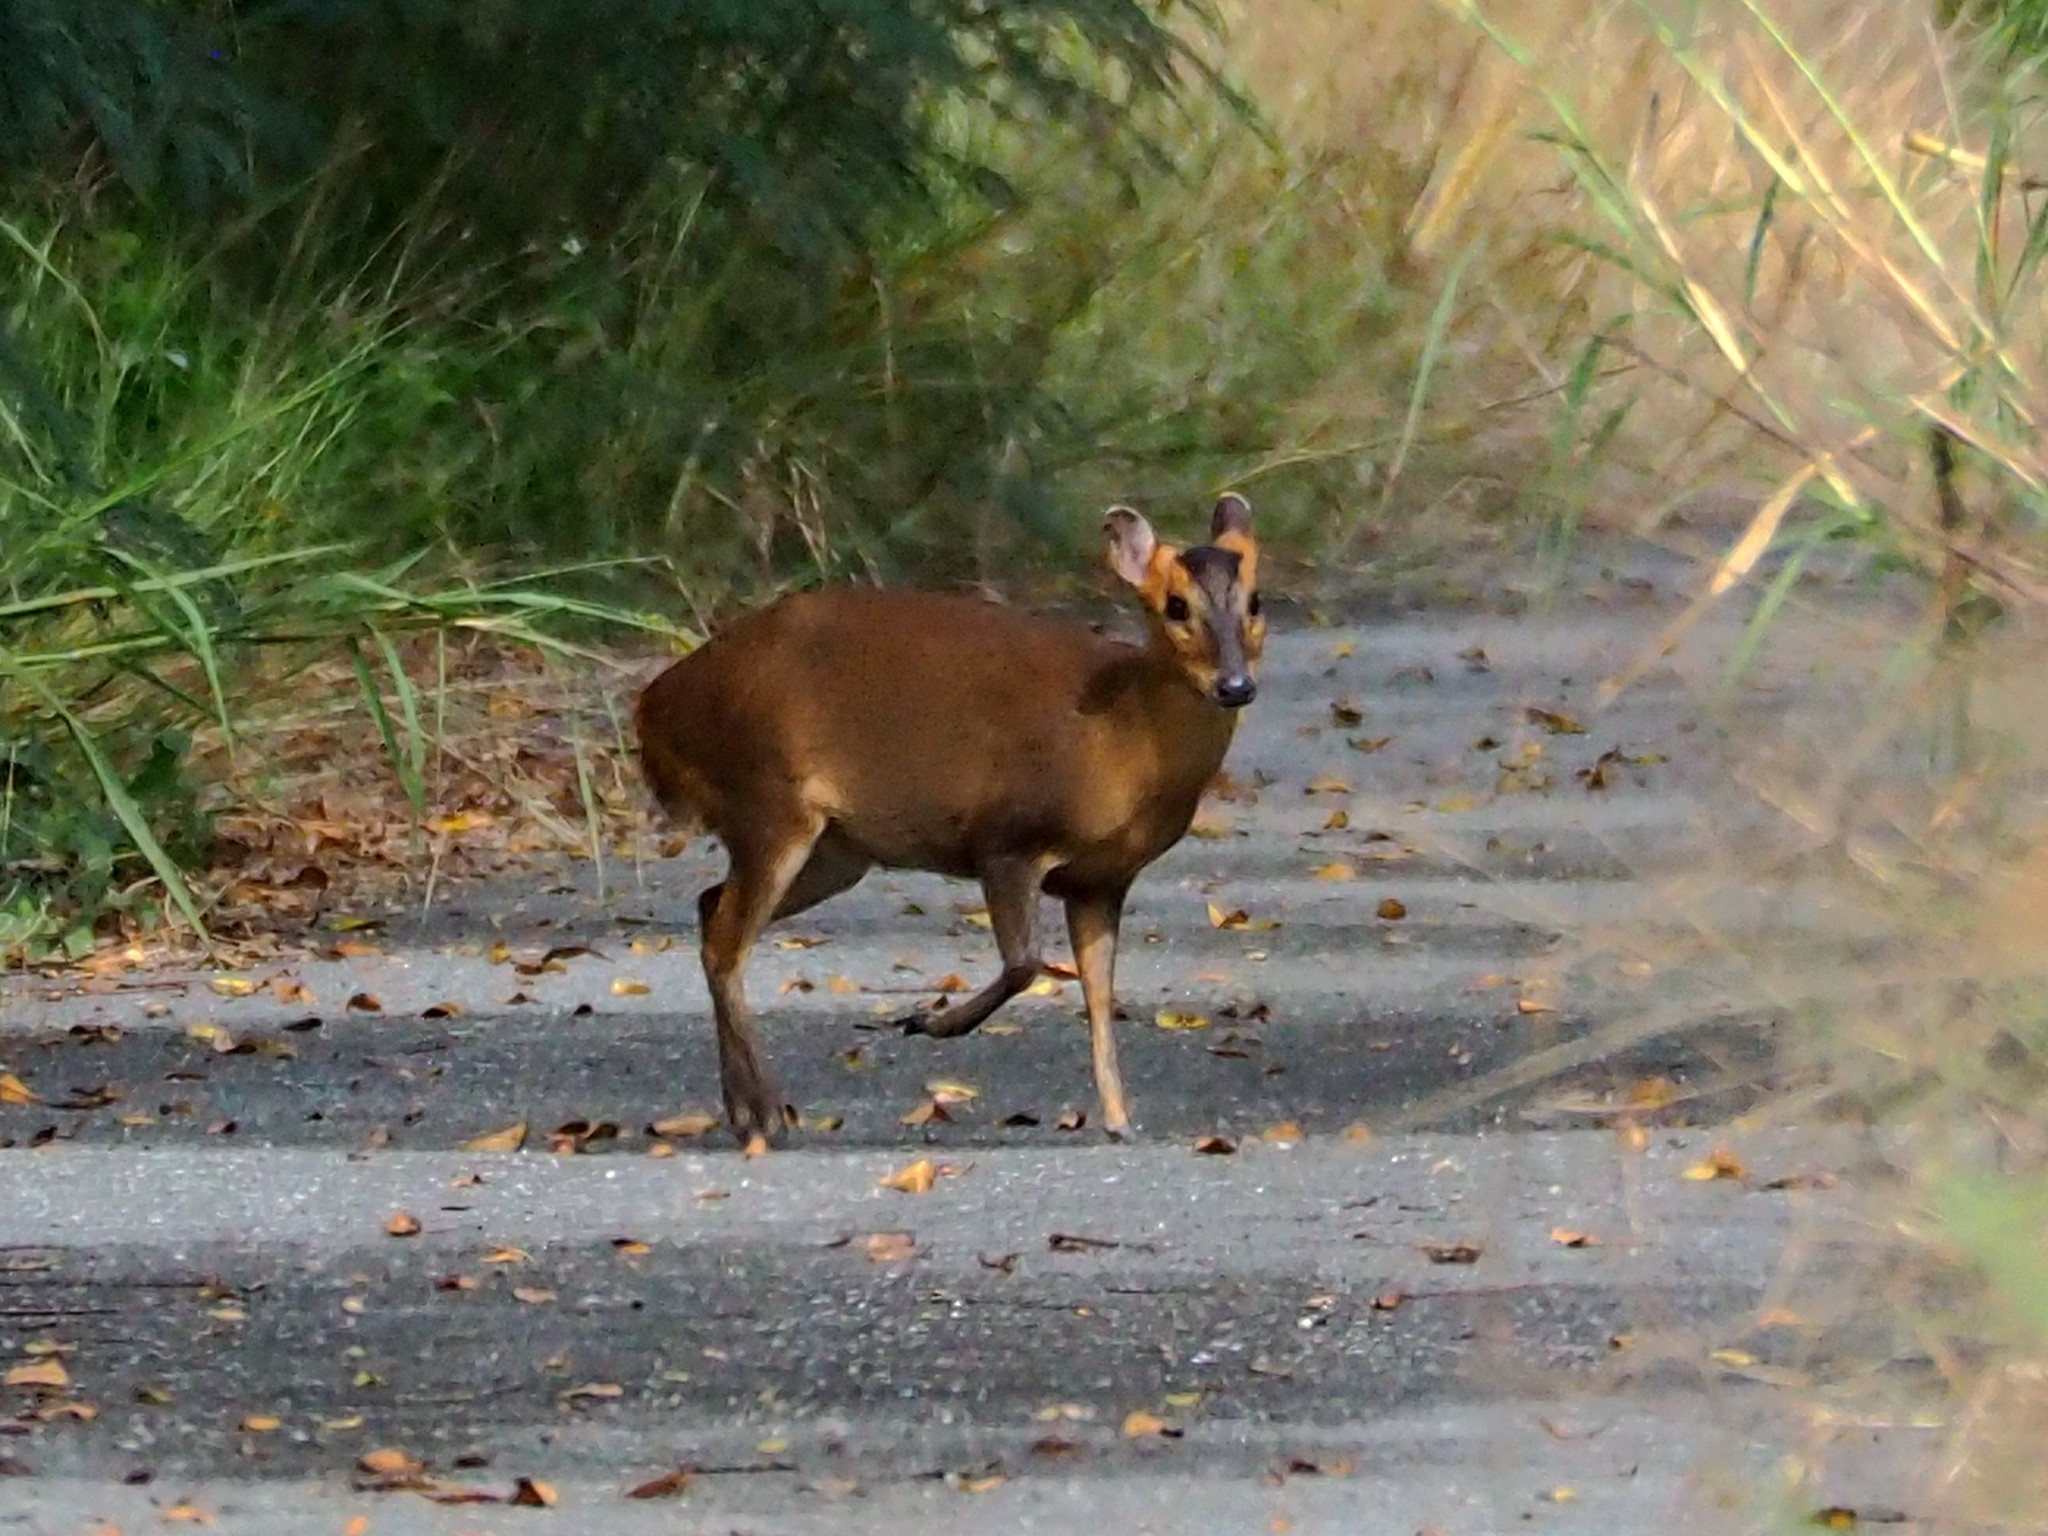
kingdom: Animalia
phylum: Chordata
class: Mammalia
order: Artiodactyla
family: Cervidae
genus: Muntiacus
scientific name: Muntiacus reevesi
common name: Reeves' muntjac
